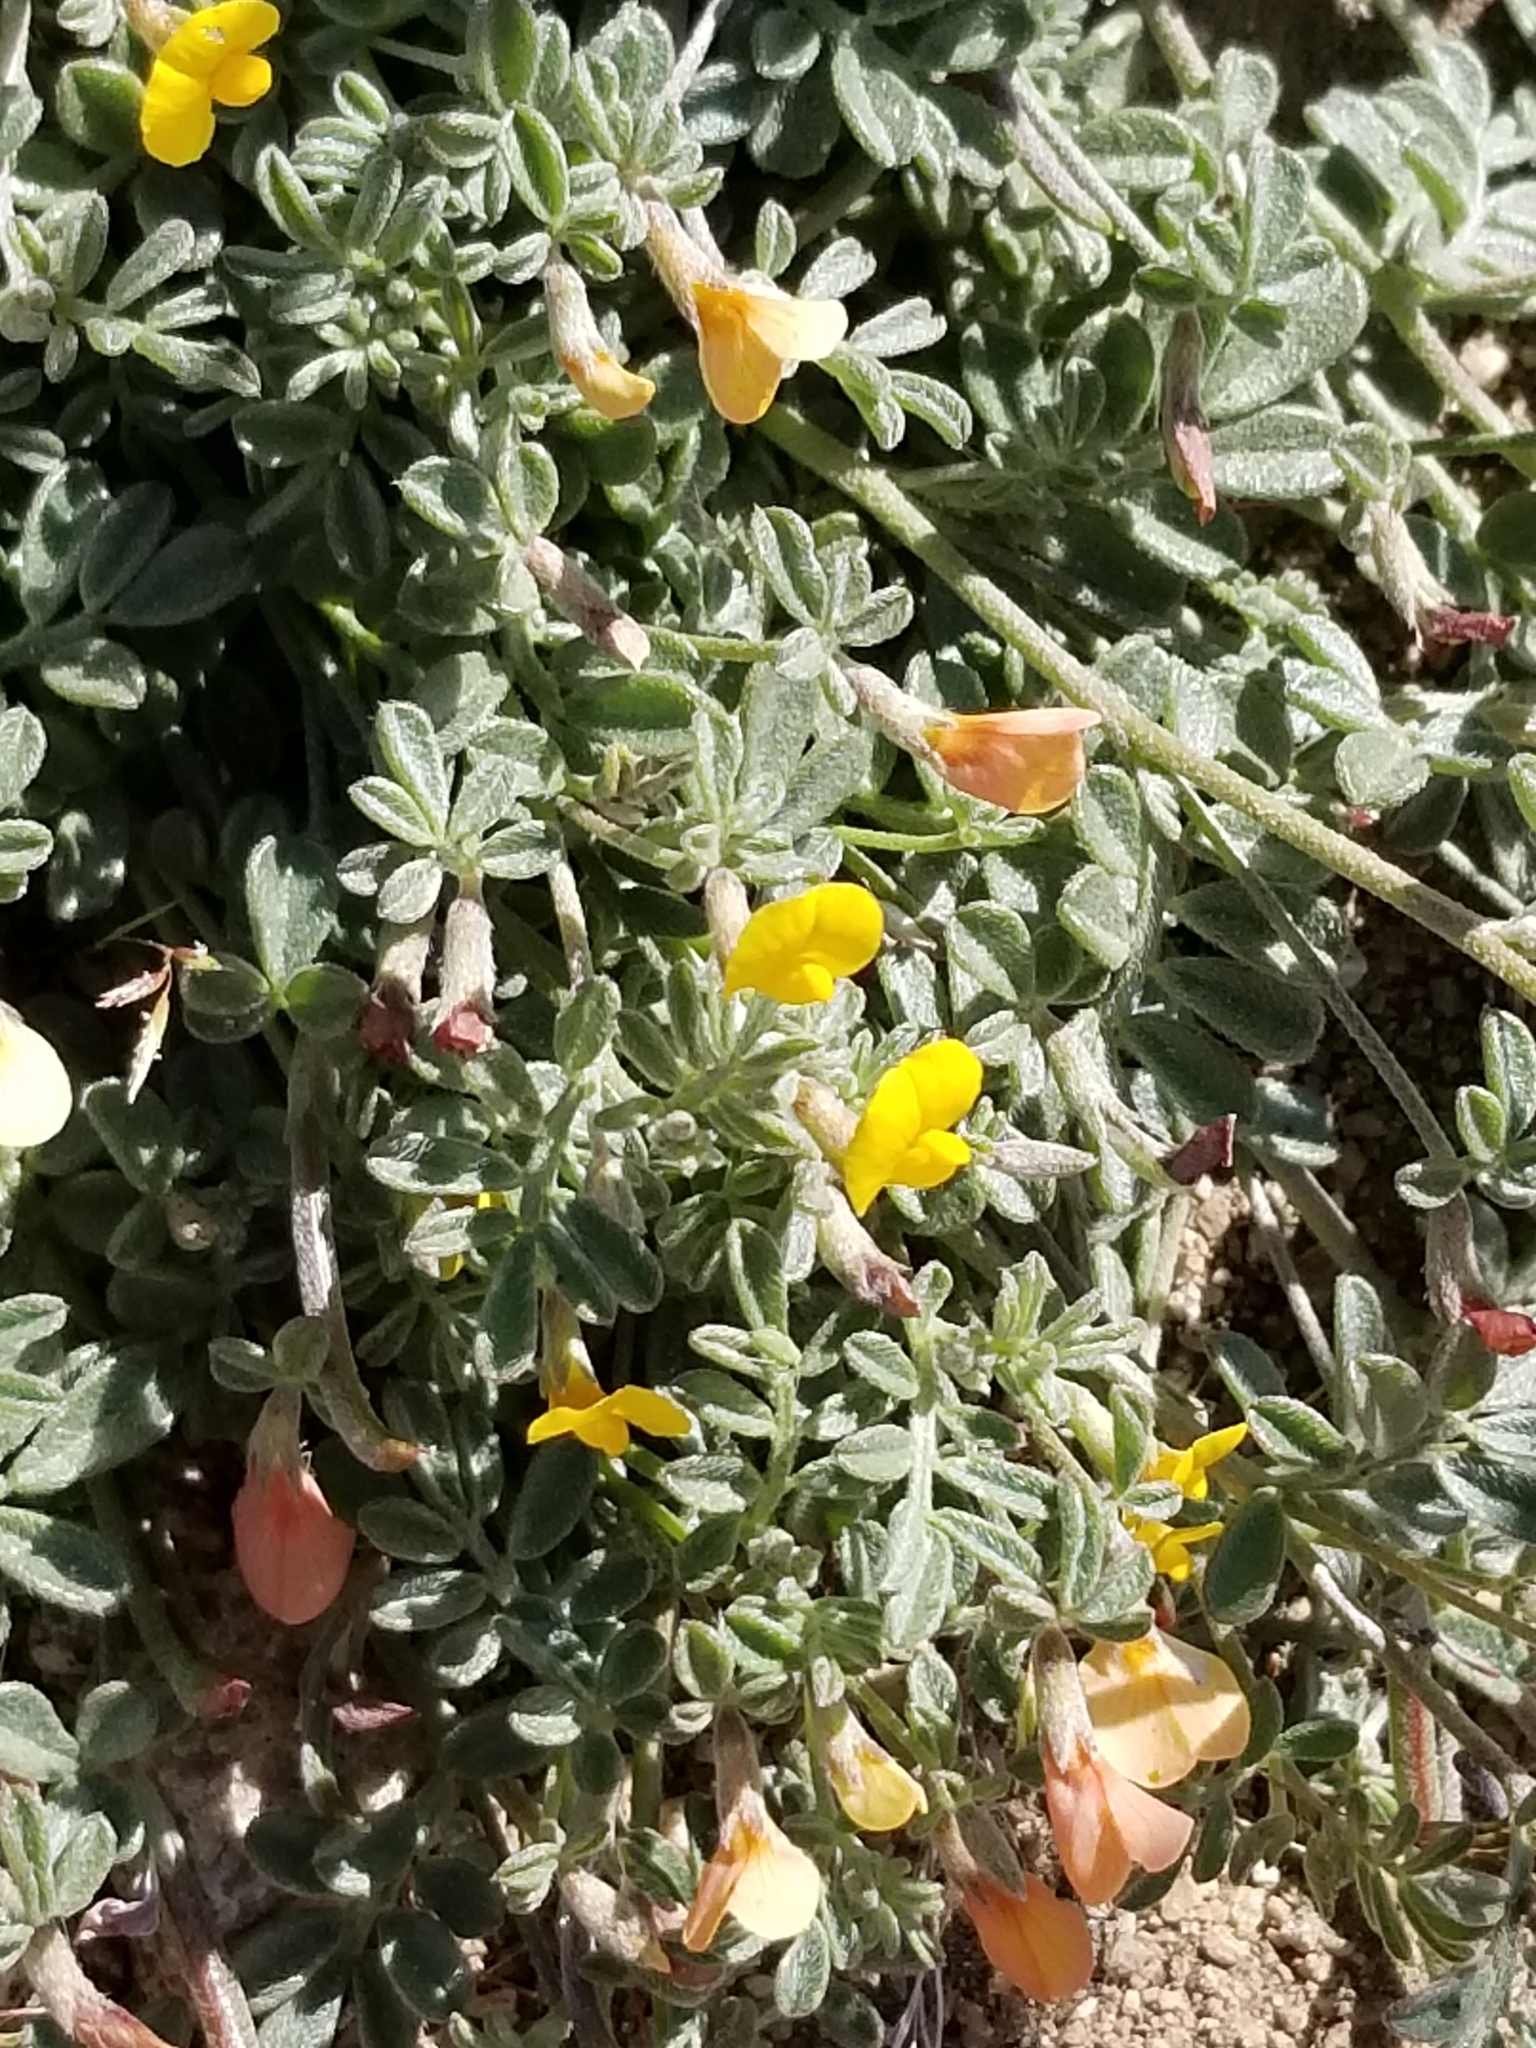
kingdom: Plantae
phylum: Tracheophyta
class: Magnoliopsida
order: Fabales
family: Fabaceae
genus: Acmispon
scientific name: Acmispon strigosus
